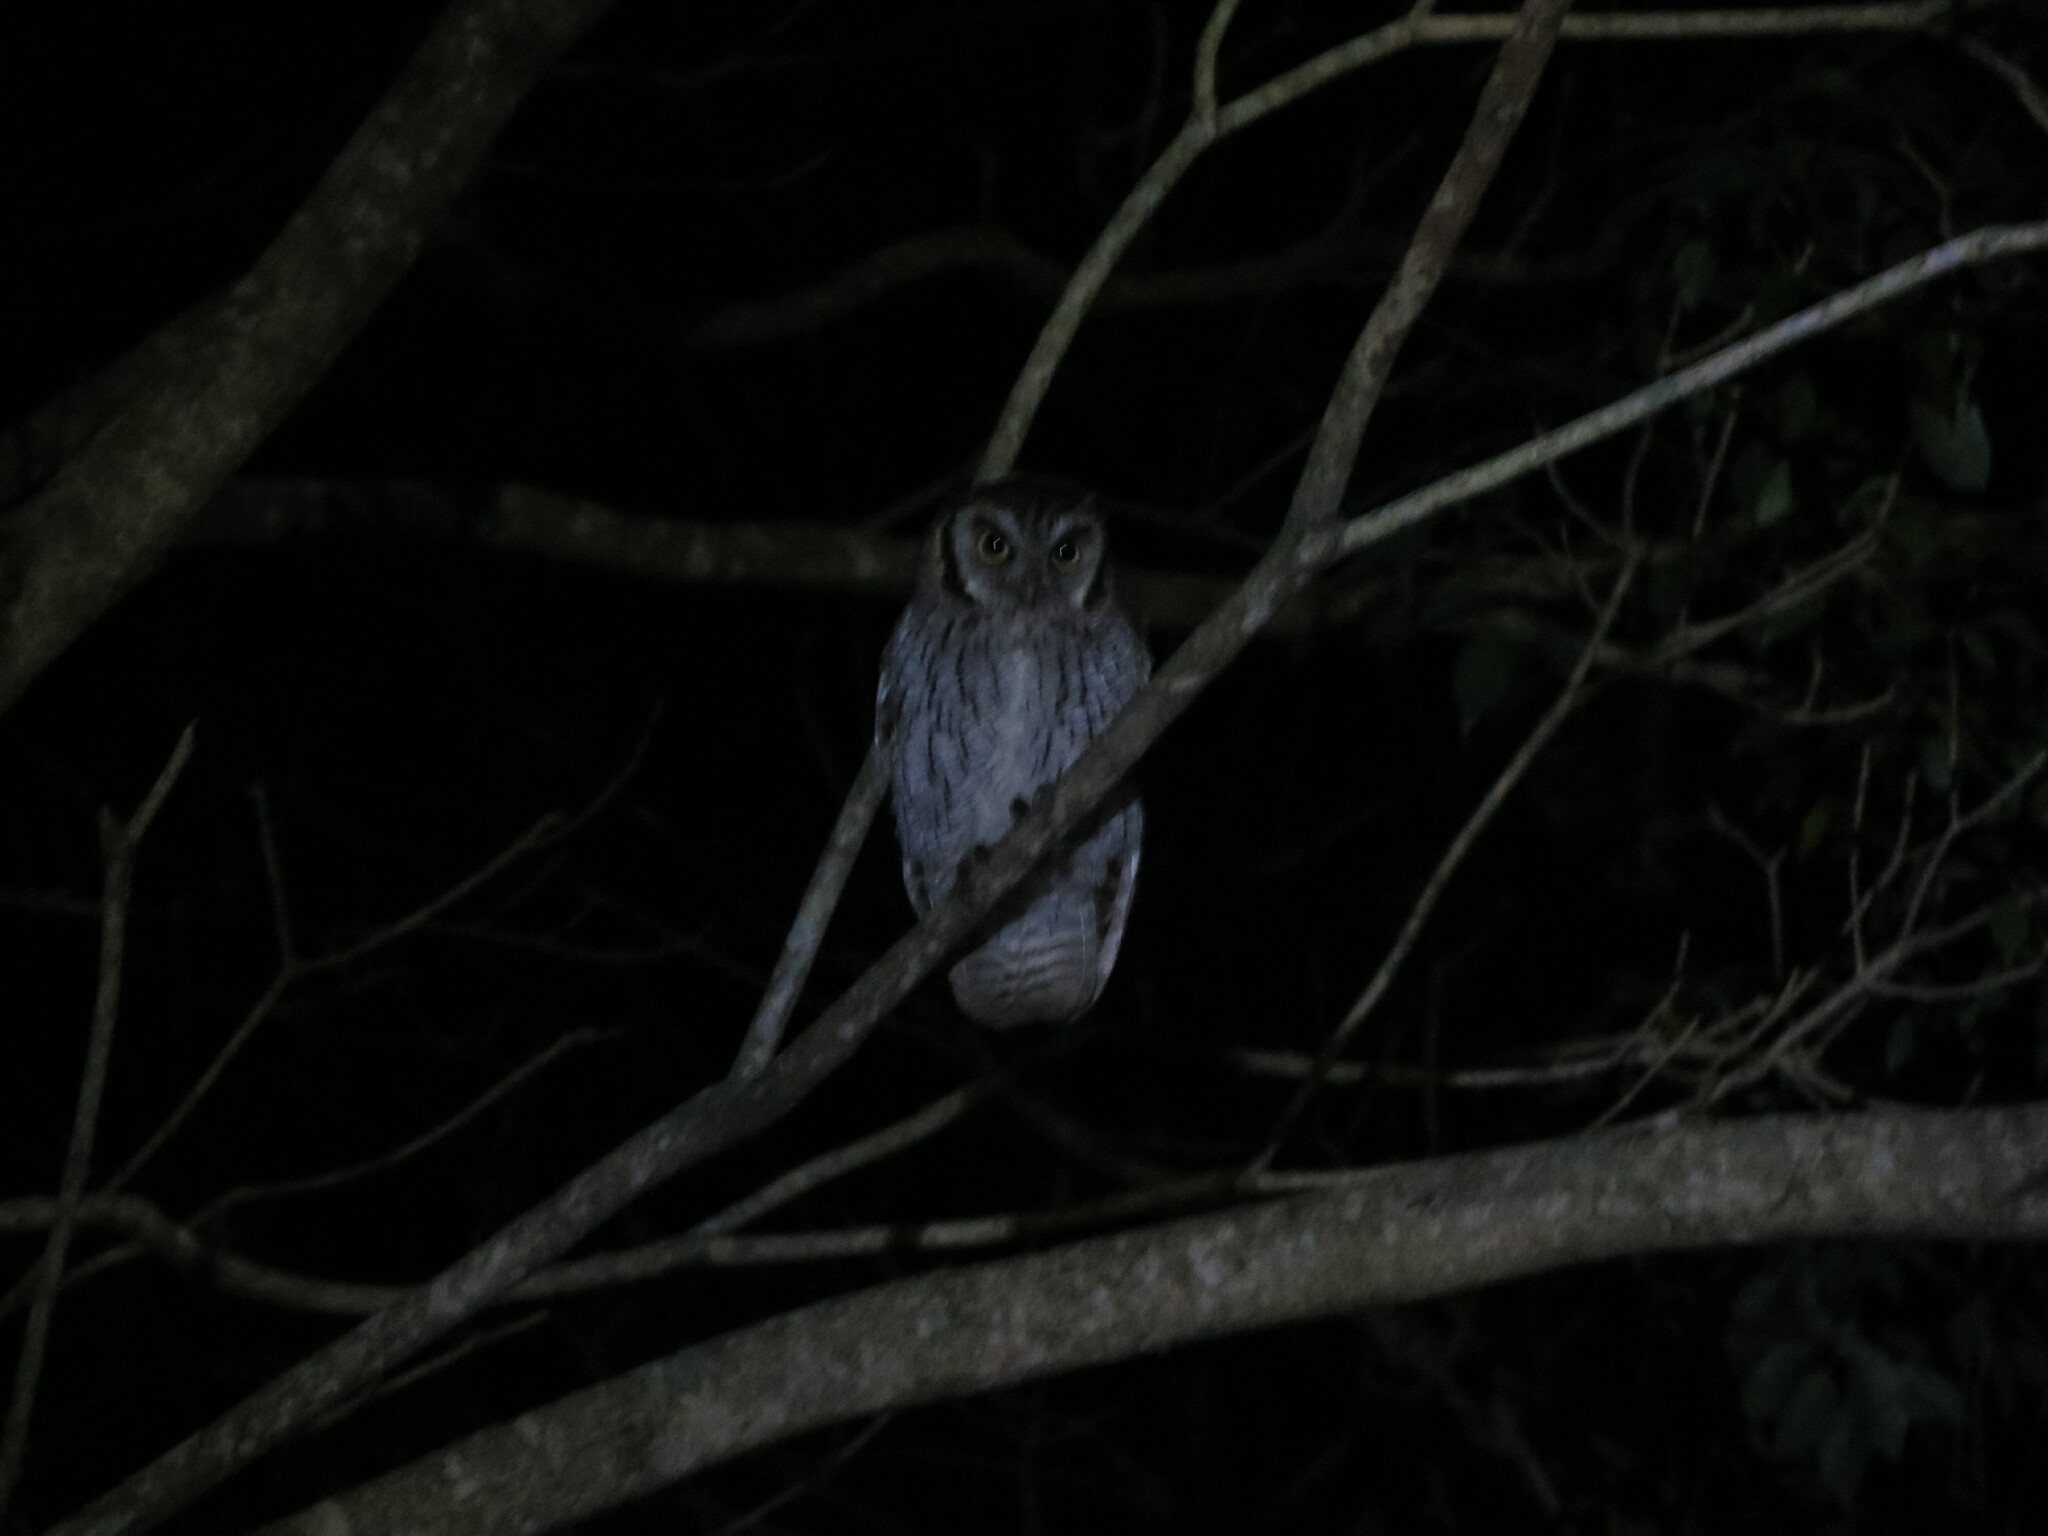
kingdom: Animalia
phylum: Chordata
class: Aves
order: Strigiformes
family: Strigidae
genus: Megascops
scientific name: Megascops choliba
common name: Tropical screech-owl
